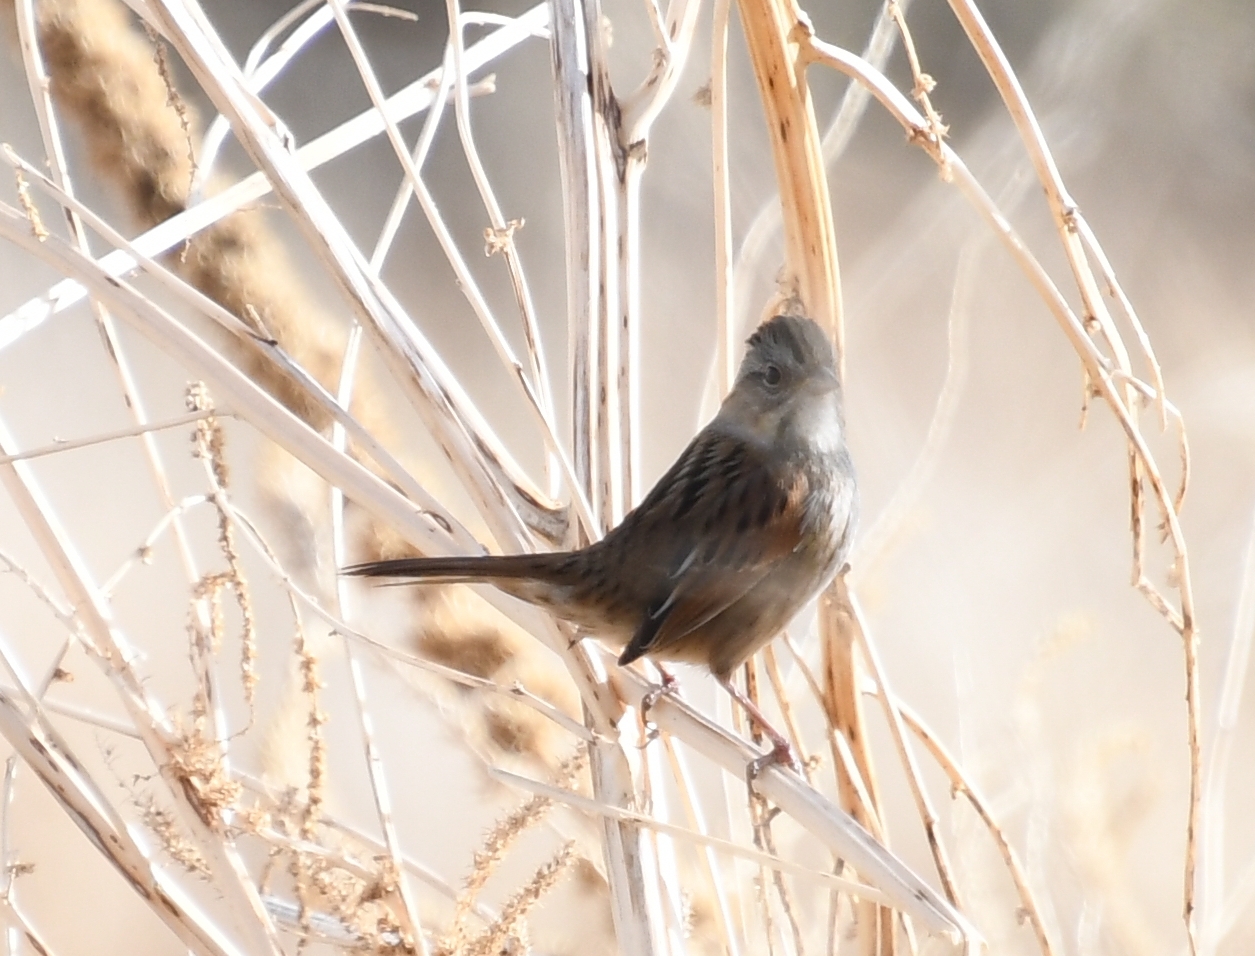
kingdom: Animalia
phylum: Chordata
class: Aves
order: Passeriformes
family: Passerellidae
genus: Melospiza
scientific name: Melospiza georgiana
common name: Swamp sparrow
